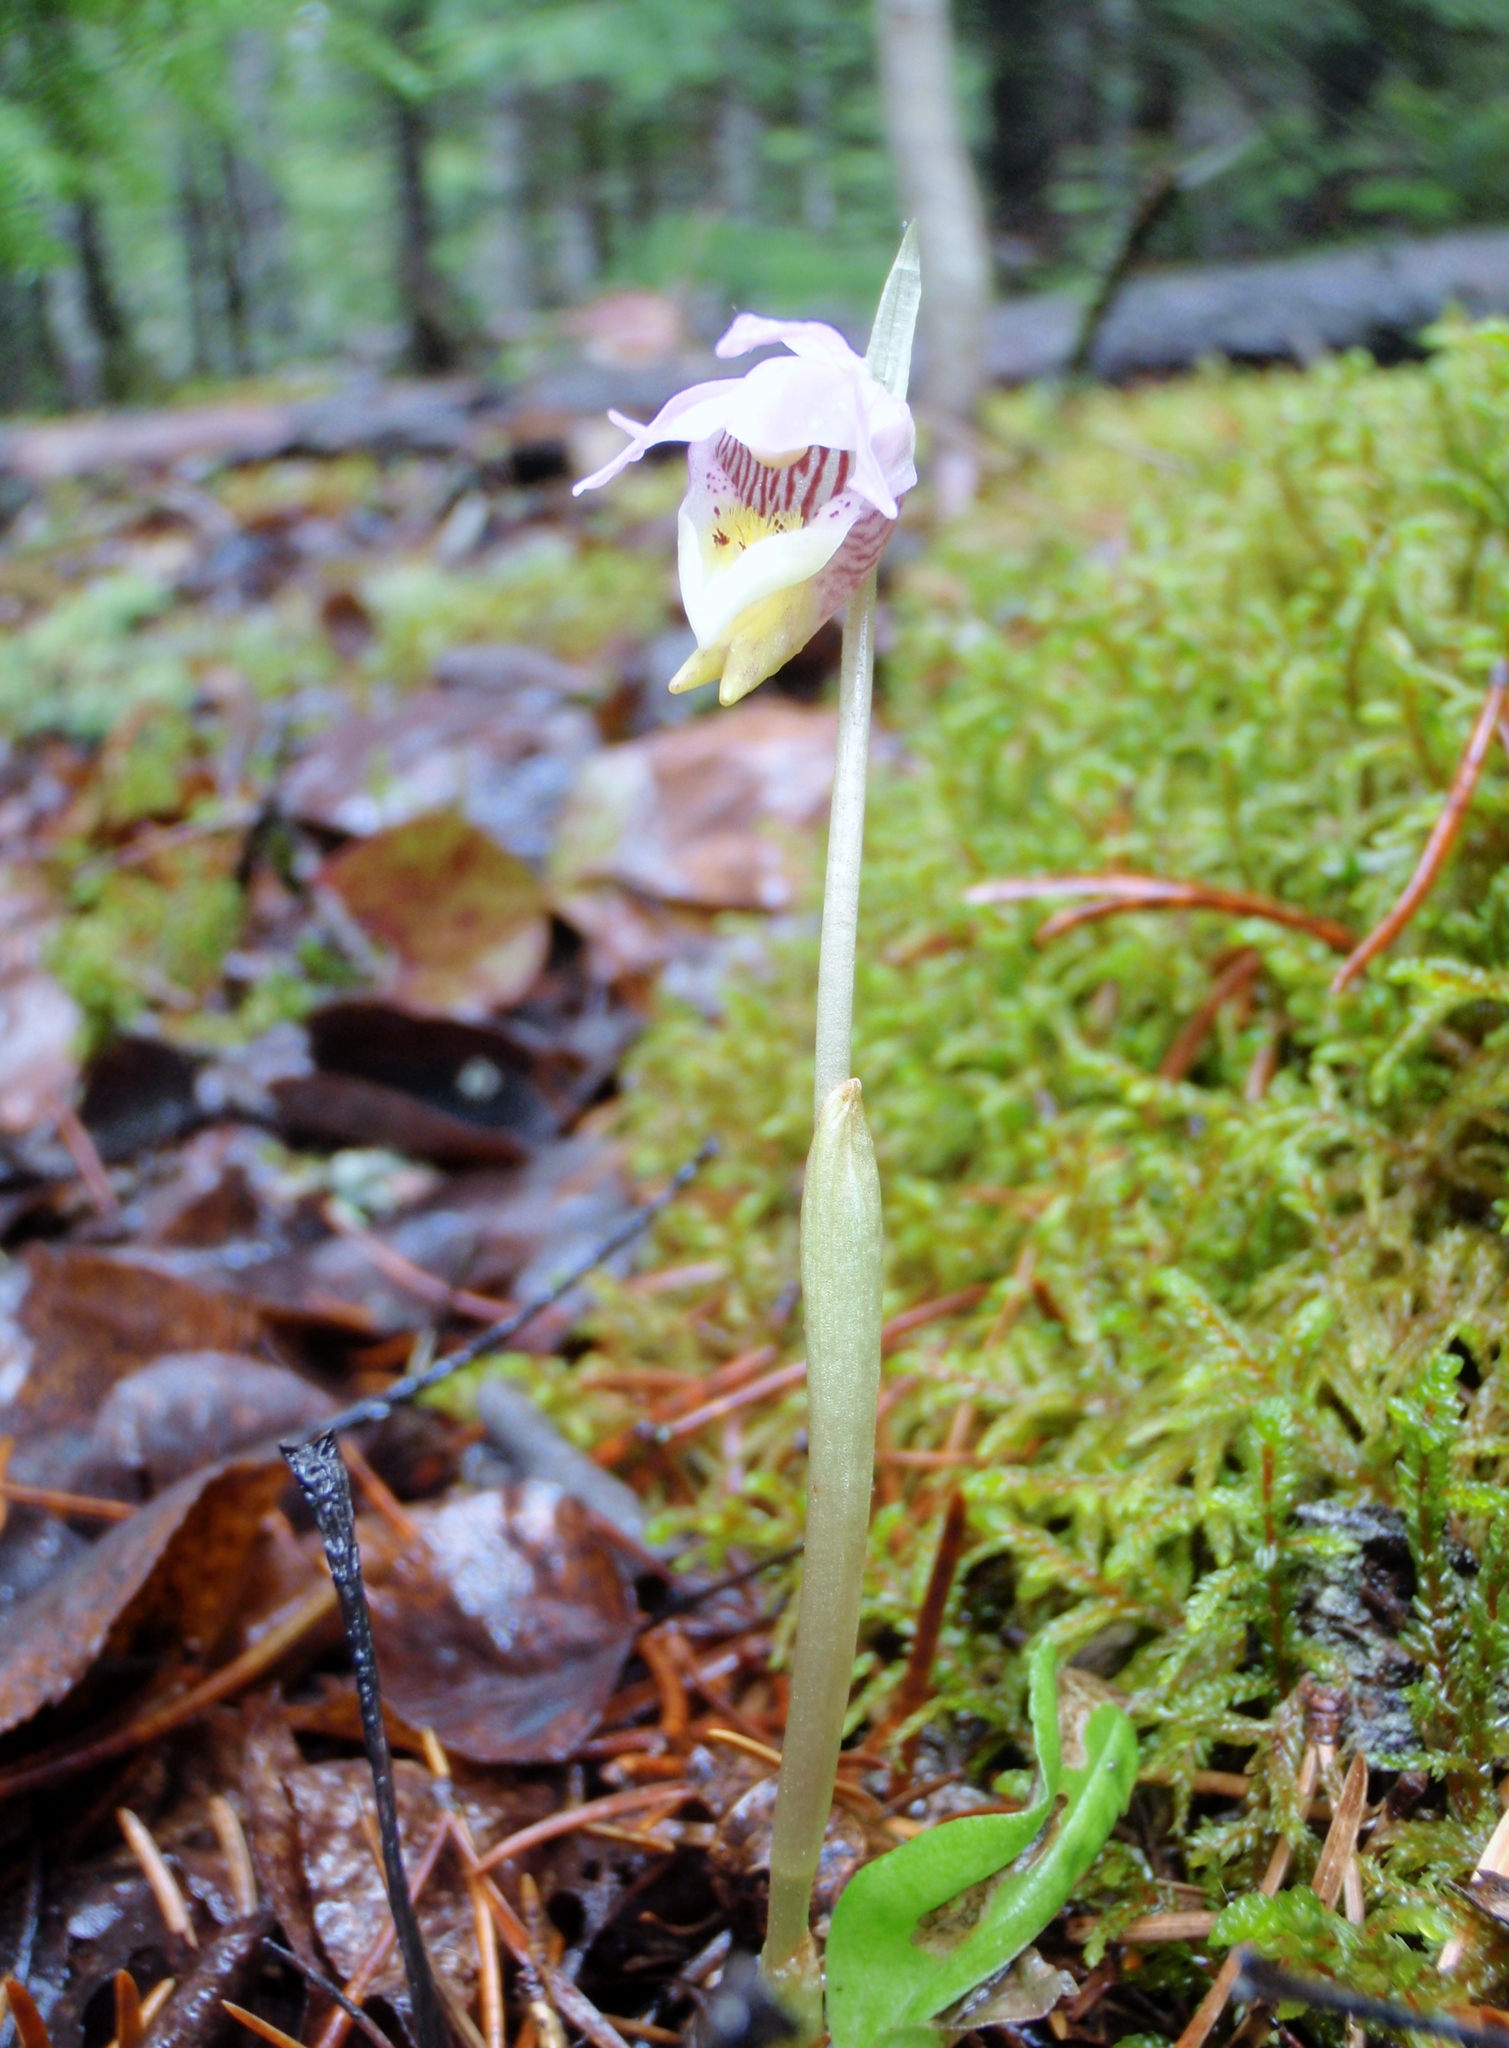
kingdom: Plantae
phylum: Tracheophyta
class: Liliopsida
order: Asparagales
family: Orchidaceae
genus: Calypso
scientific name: Calypso bulbosa
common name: Calypso
